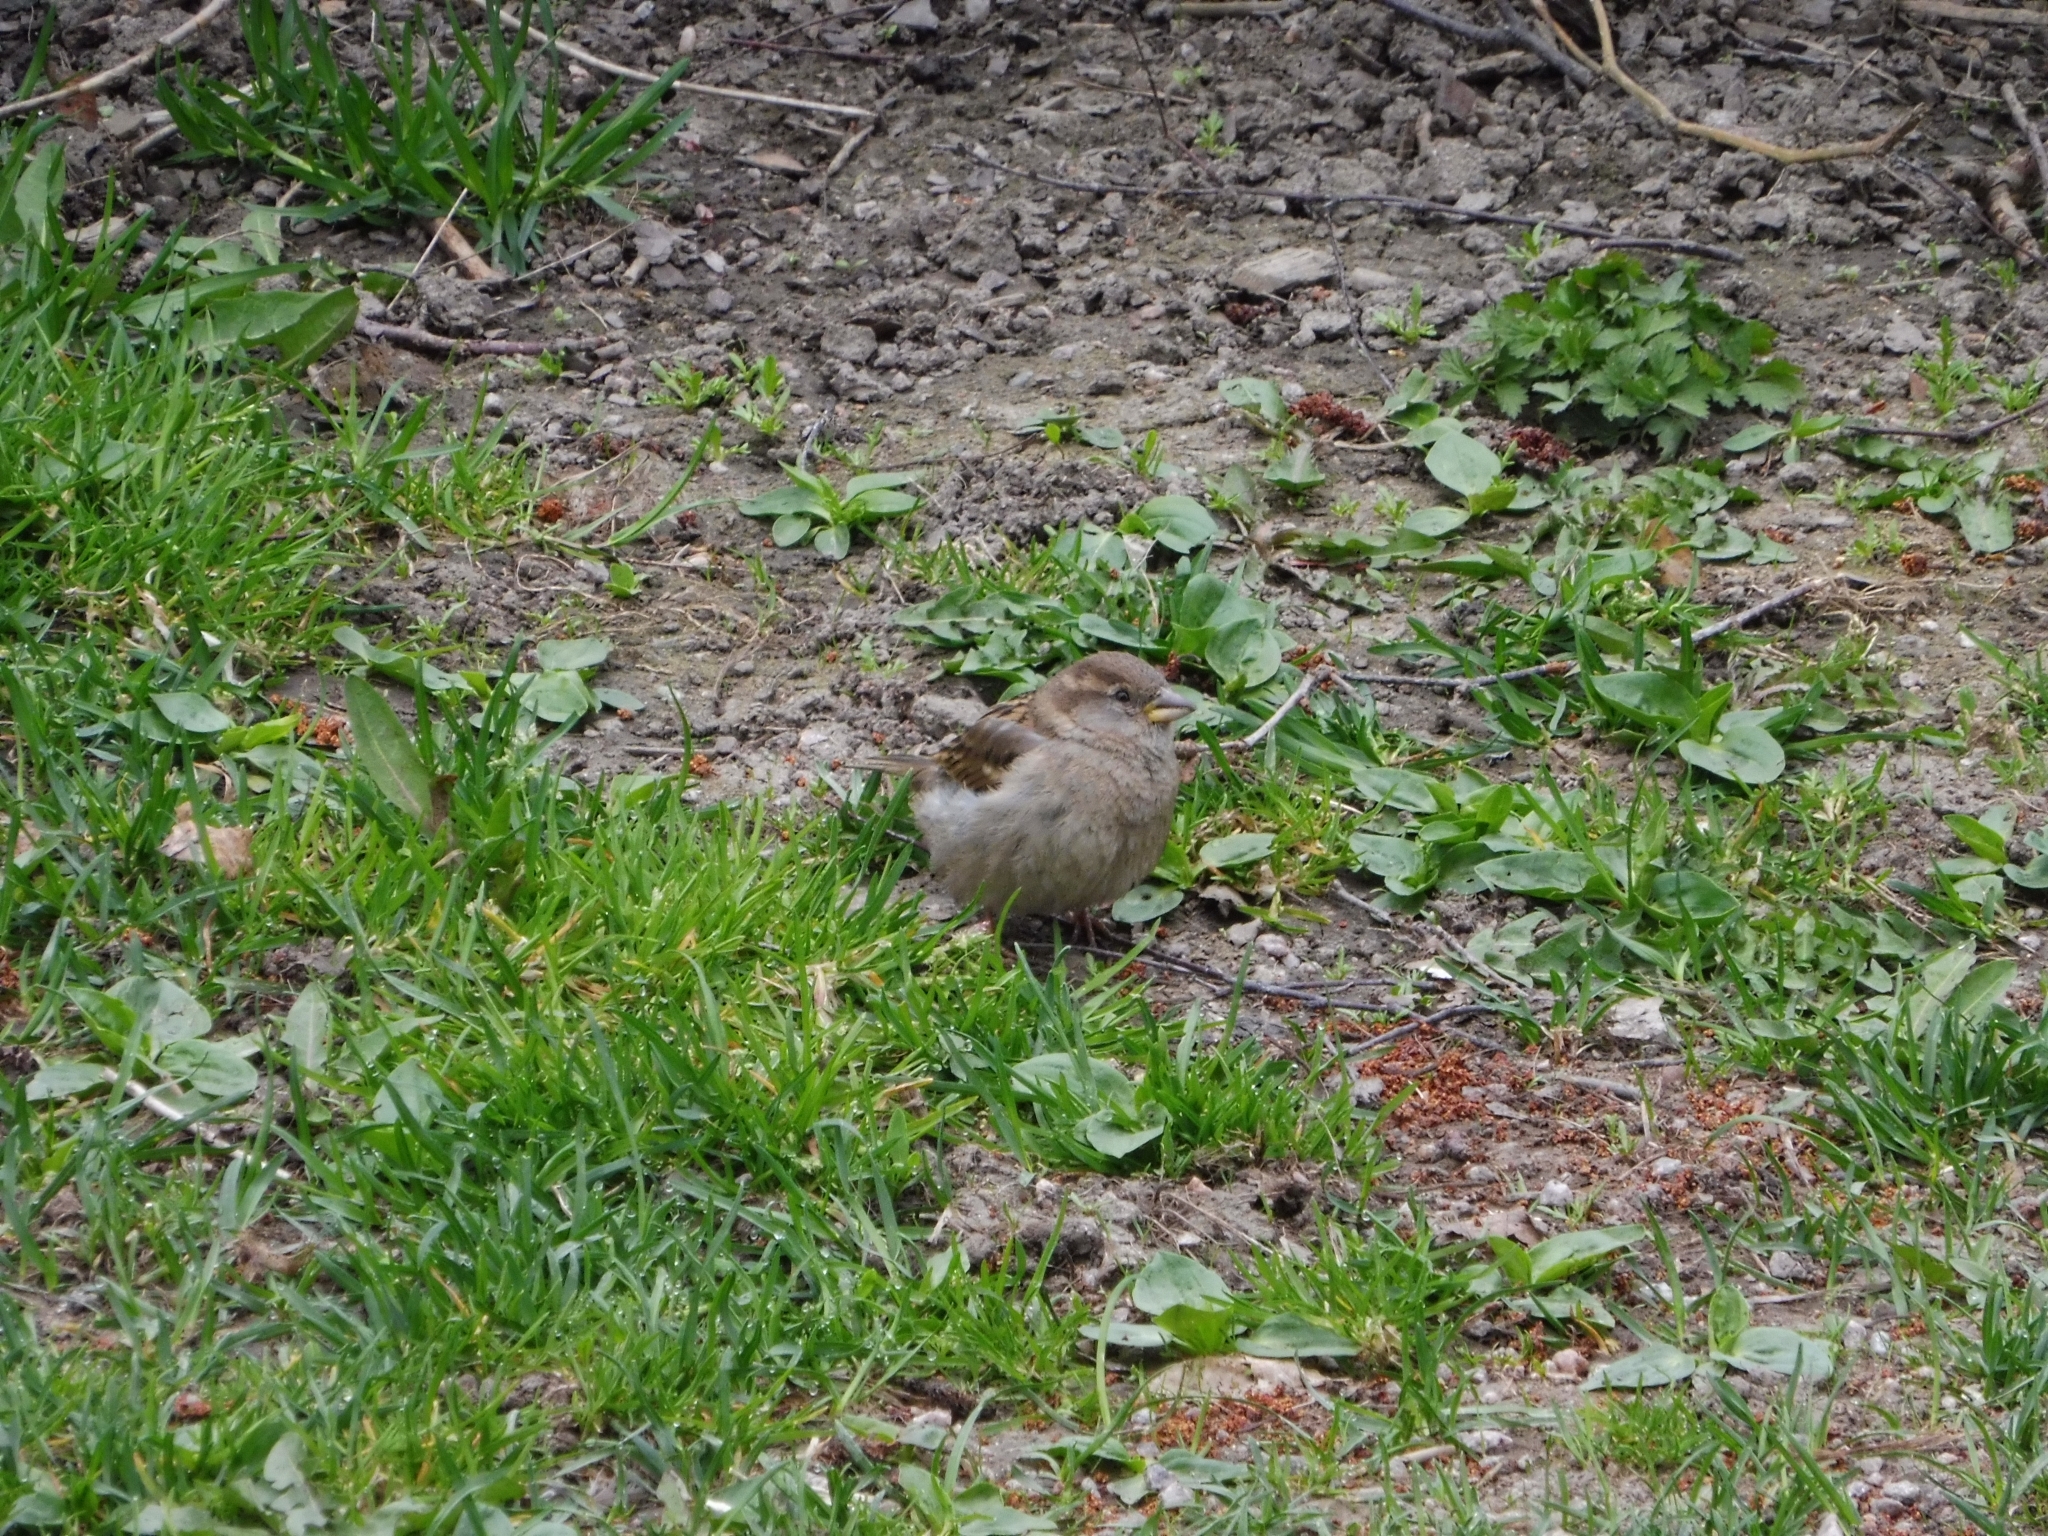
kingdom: Animalia
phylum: Chordata
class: Aves
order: Passeriformes
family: Passeridae
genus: Passer
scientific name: Passer domesticus
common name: House sparrow
